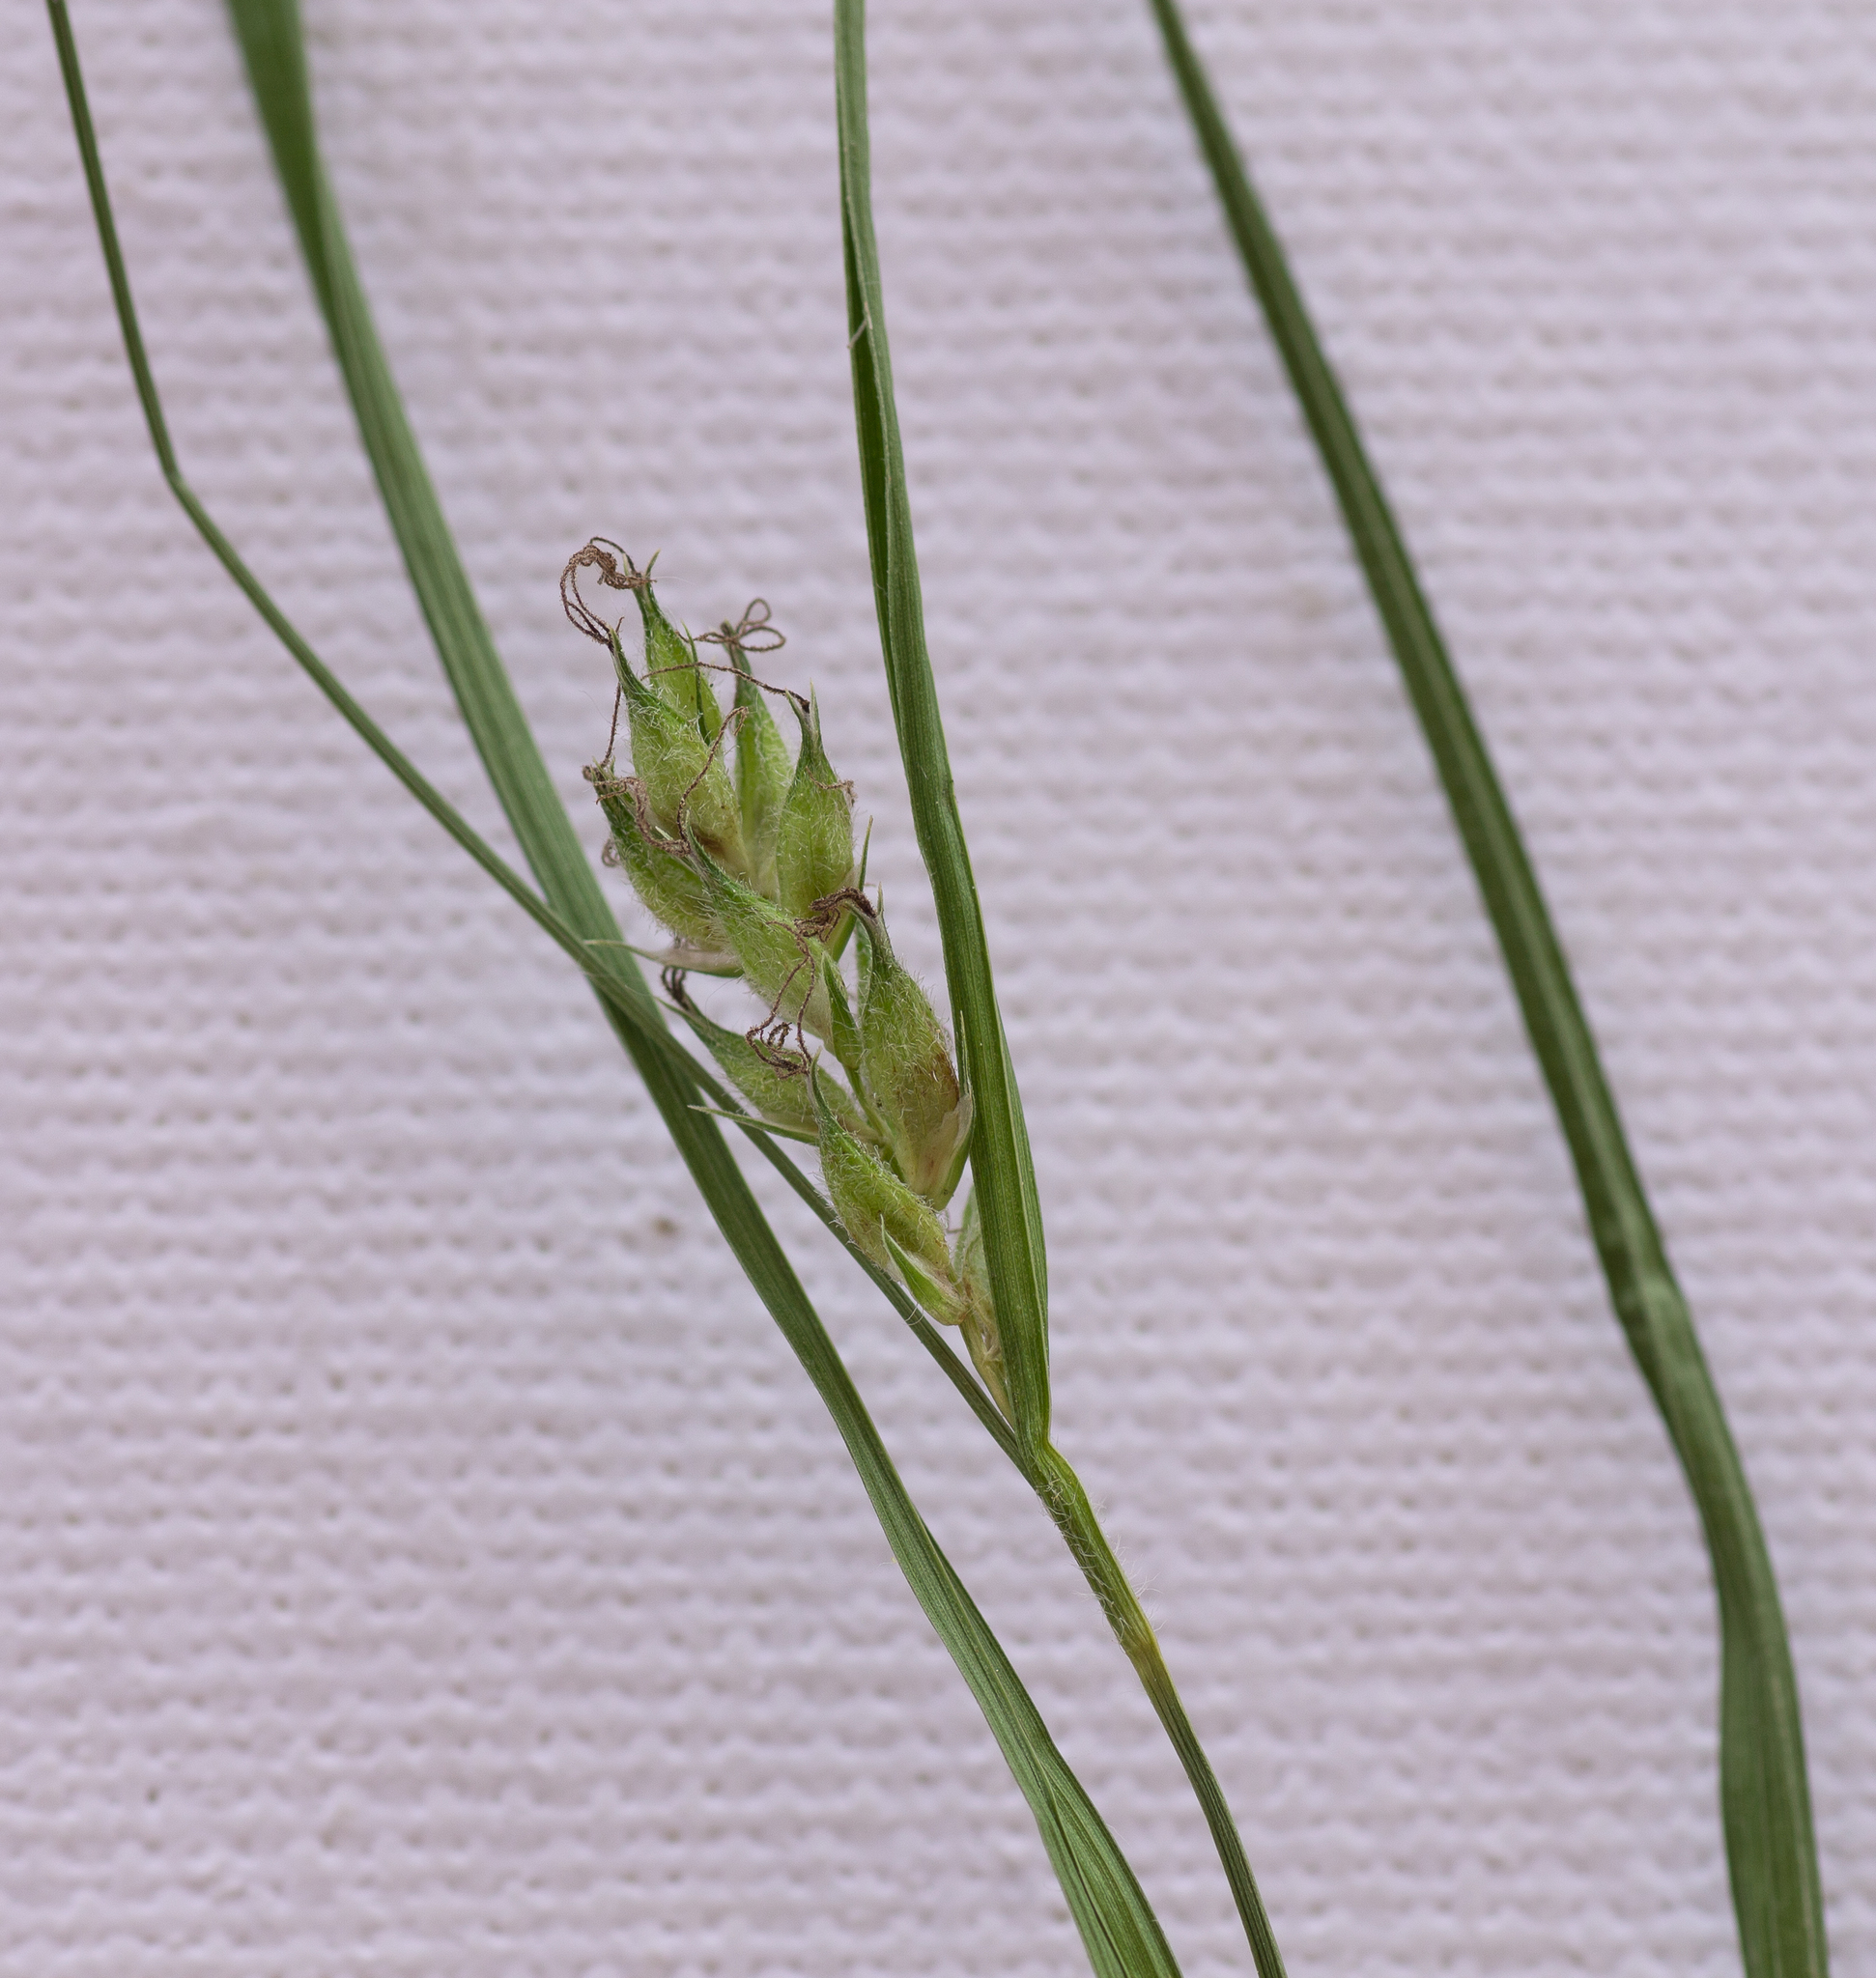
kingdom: Plantae
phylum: Tracheophyta
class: Liliopsida
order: Poales
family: Cyperaceae
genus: Carex
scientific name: Carex hirta
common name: Hairy sedge
